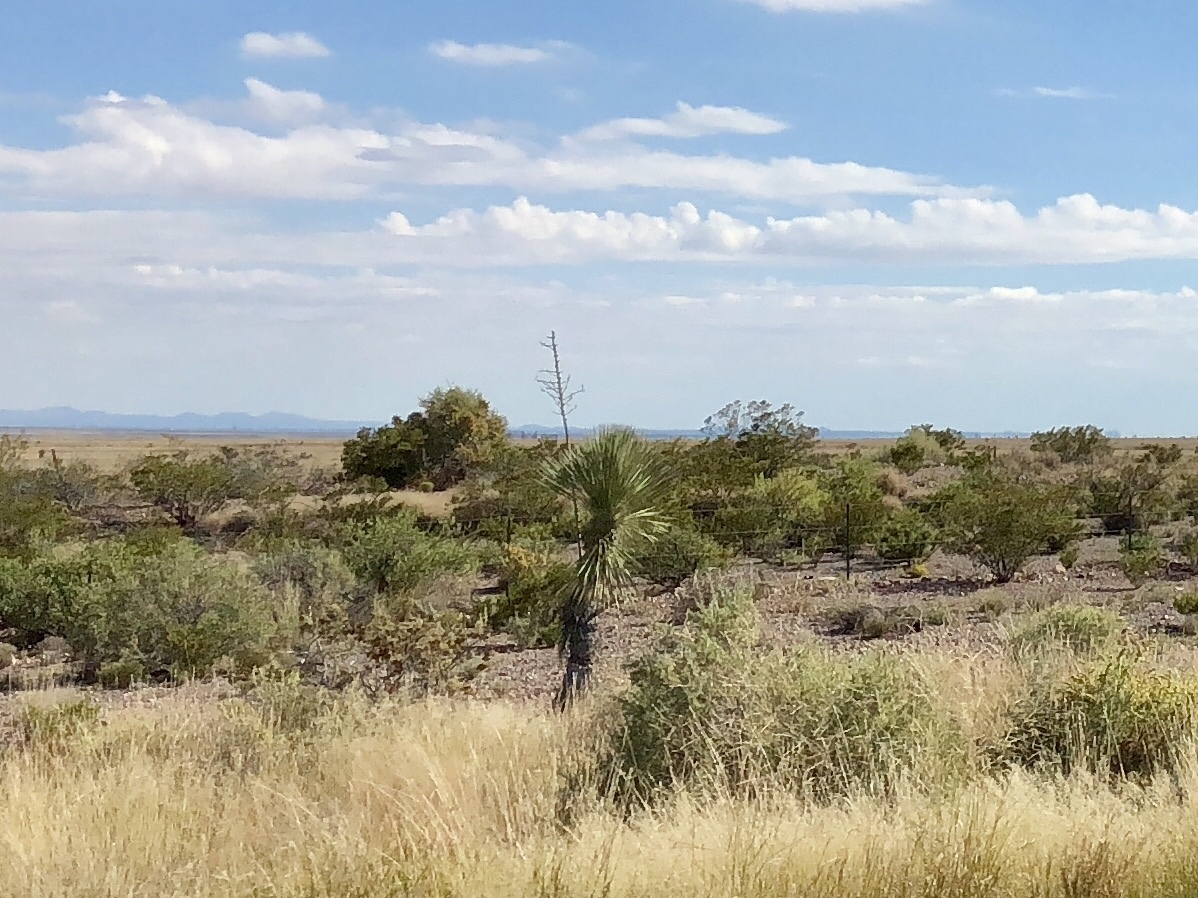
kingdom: Plantae
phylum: Tracheophyta
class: Liliopsida
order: Asparagales
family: Asparagaceae
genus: Yucca
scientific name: Yucca elata
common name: Palmella
